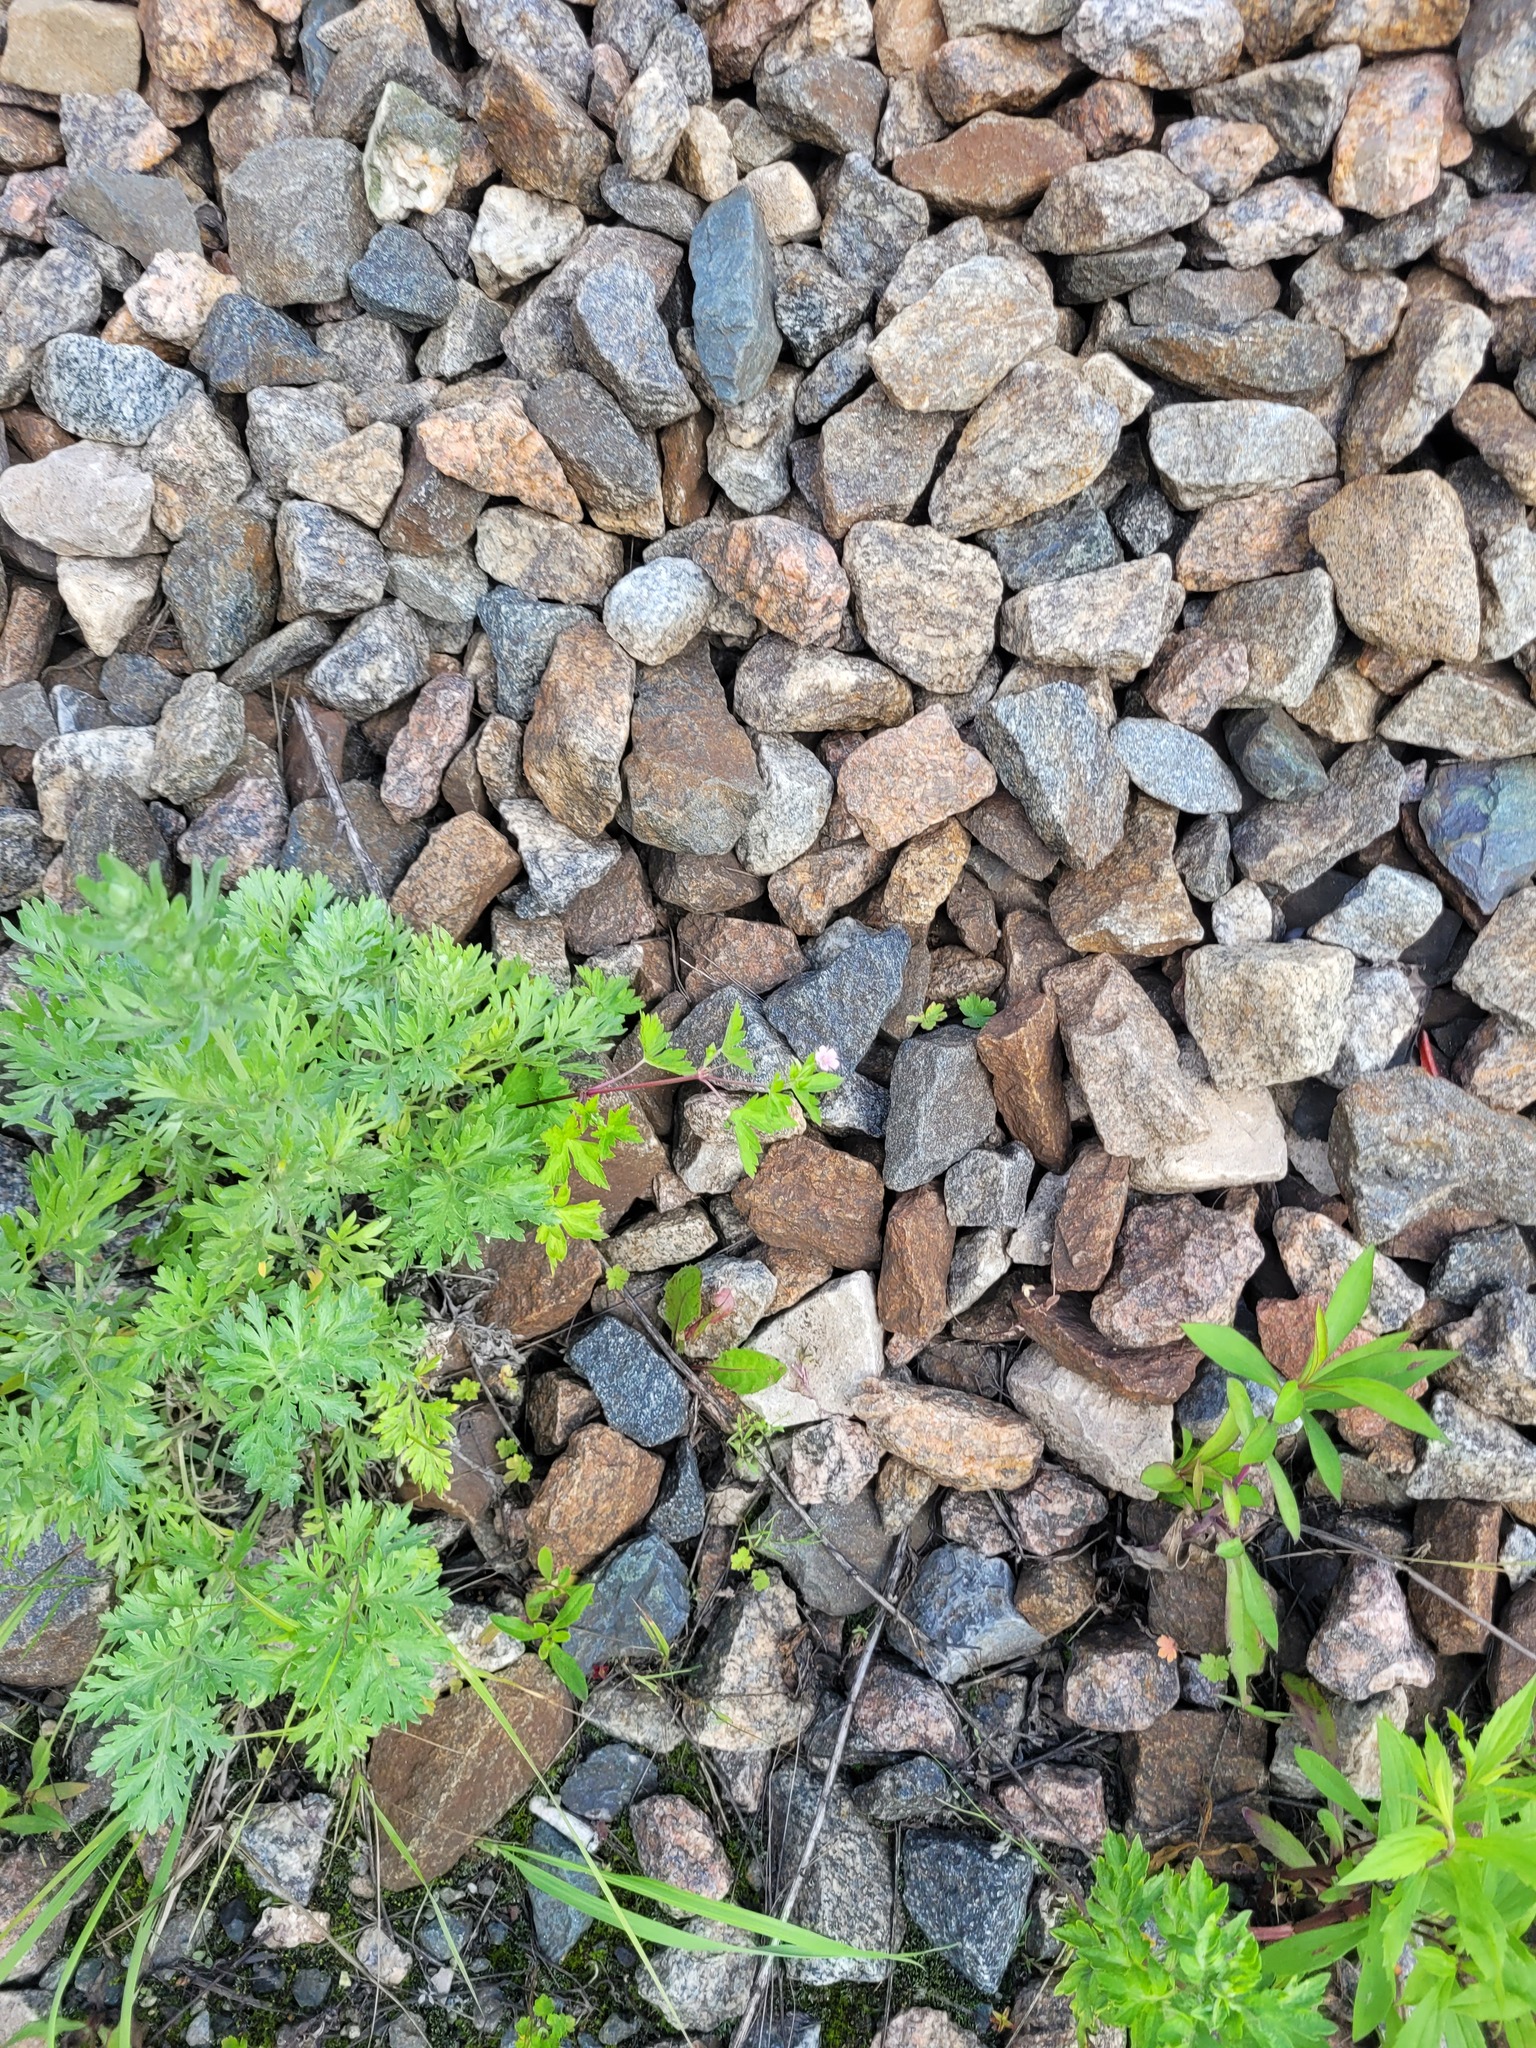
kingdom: Plantae
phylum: Tracheophyta
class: Magnoliopsida
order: Geraniales
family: Geraniaceae
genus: Geranium
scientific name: Geranium sibiricum
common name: Siberian crane's-bill
